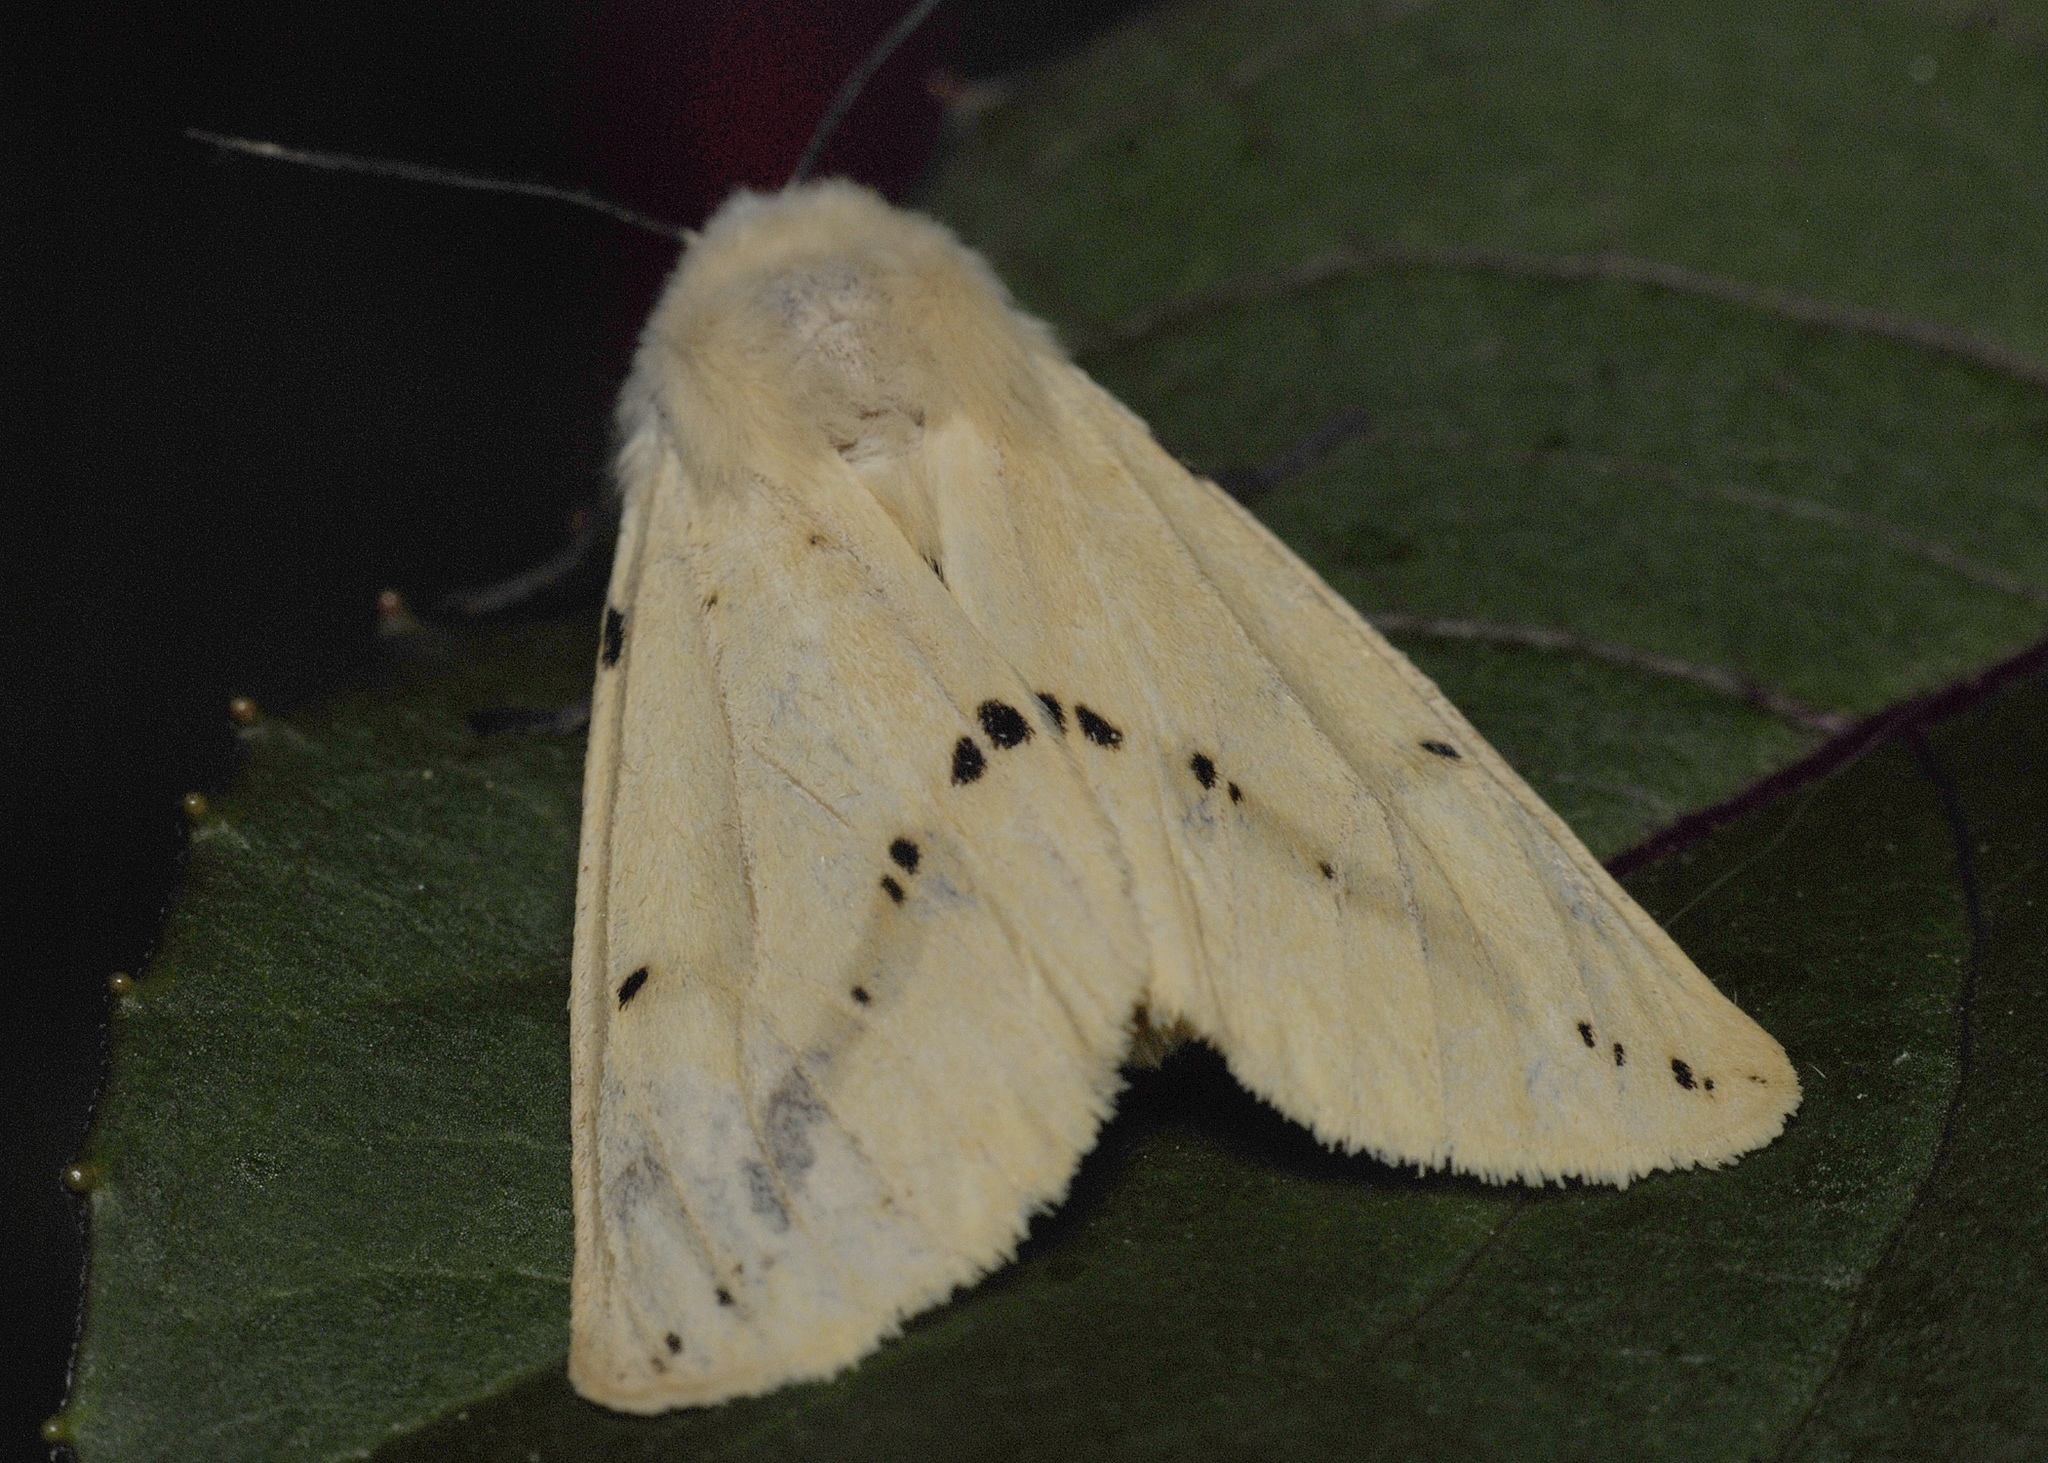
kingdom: Animalia
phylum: Arthropoda
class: Insecta
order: Lepidoptera
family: Erebidae
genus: Spilarctia
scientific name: Spilarctia lutea
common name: Buff ermine
